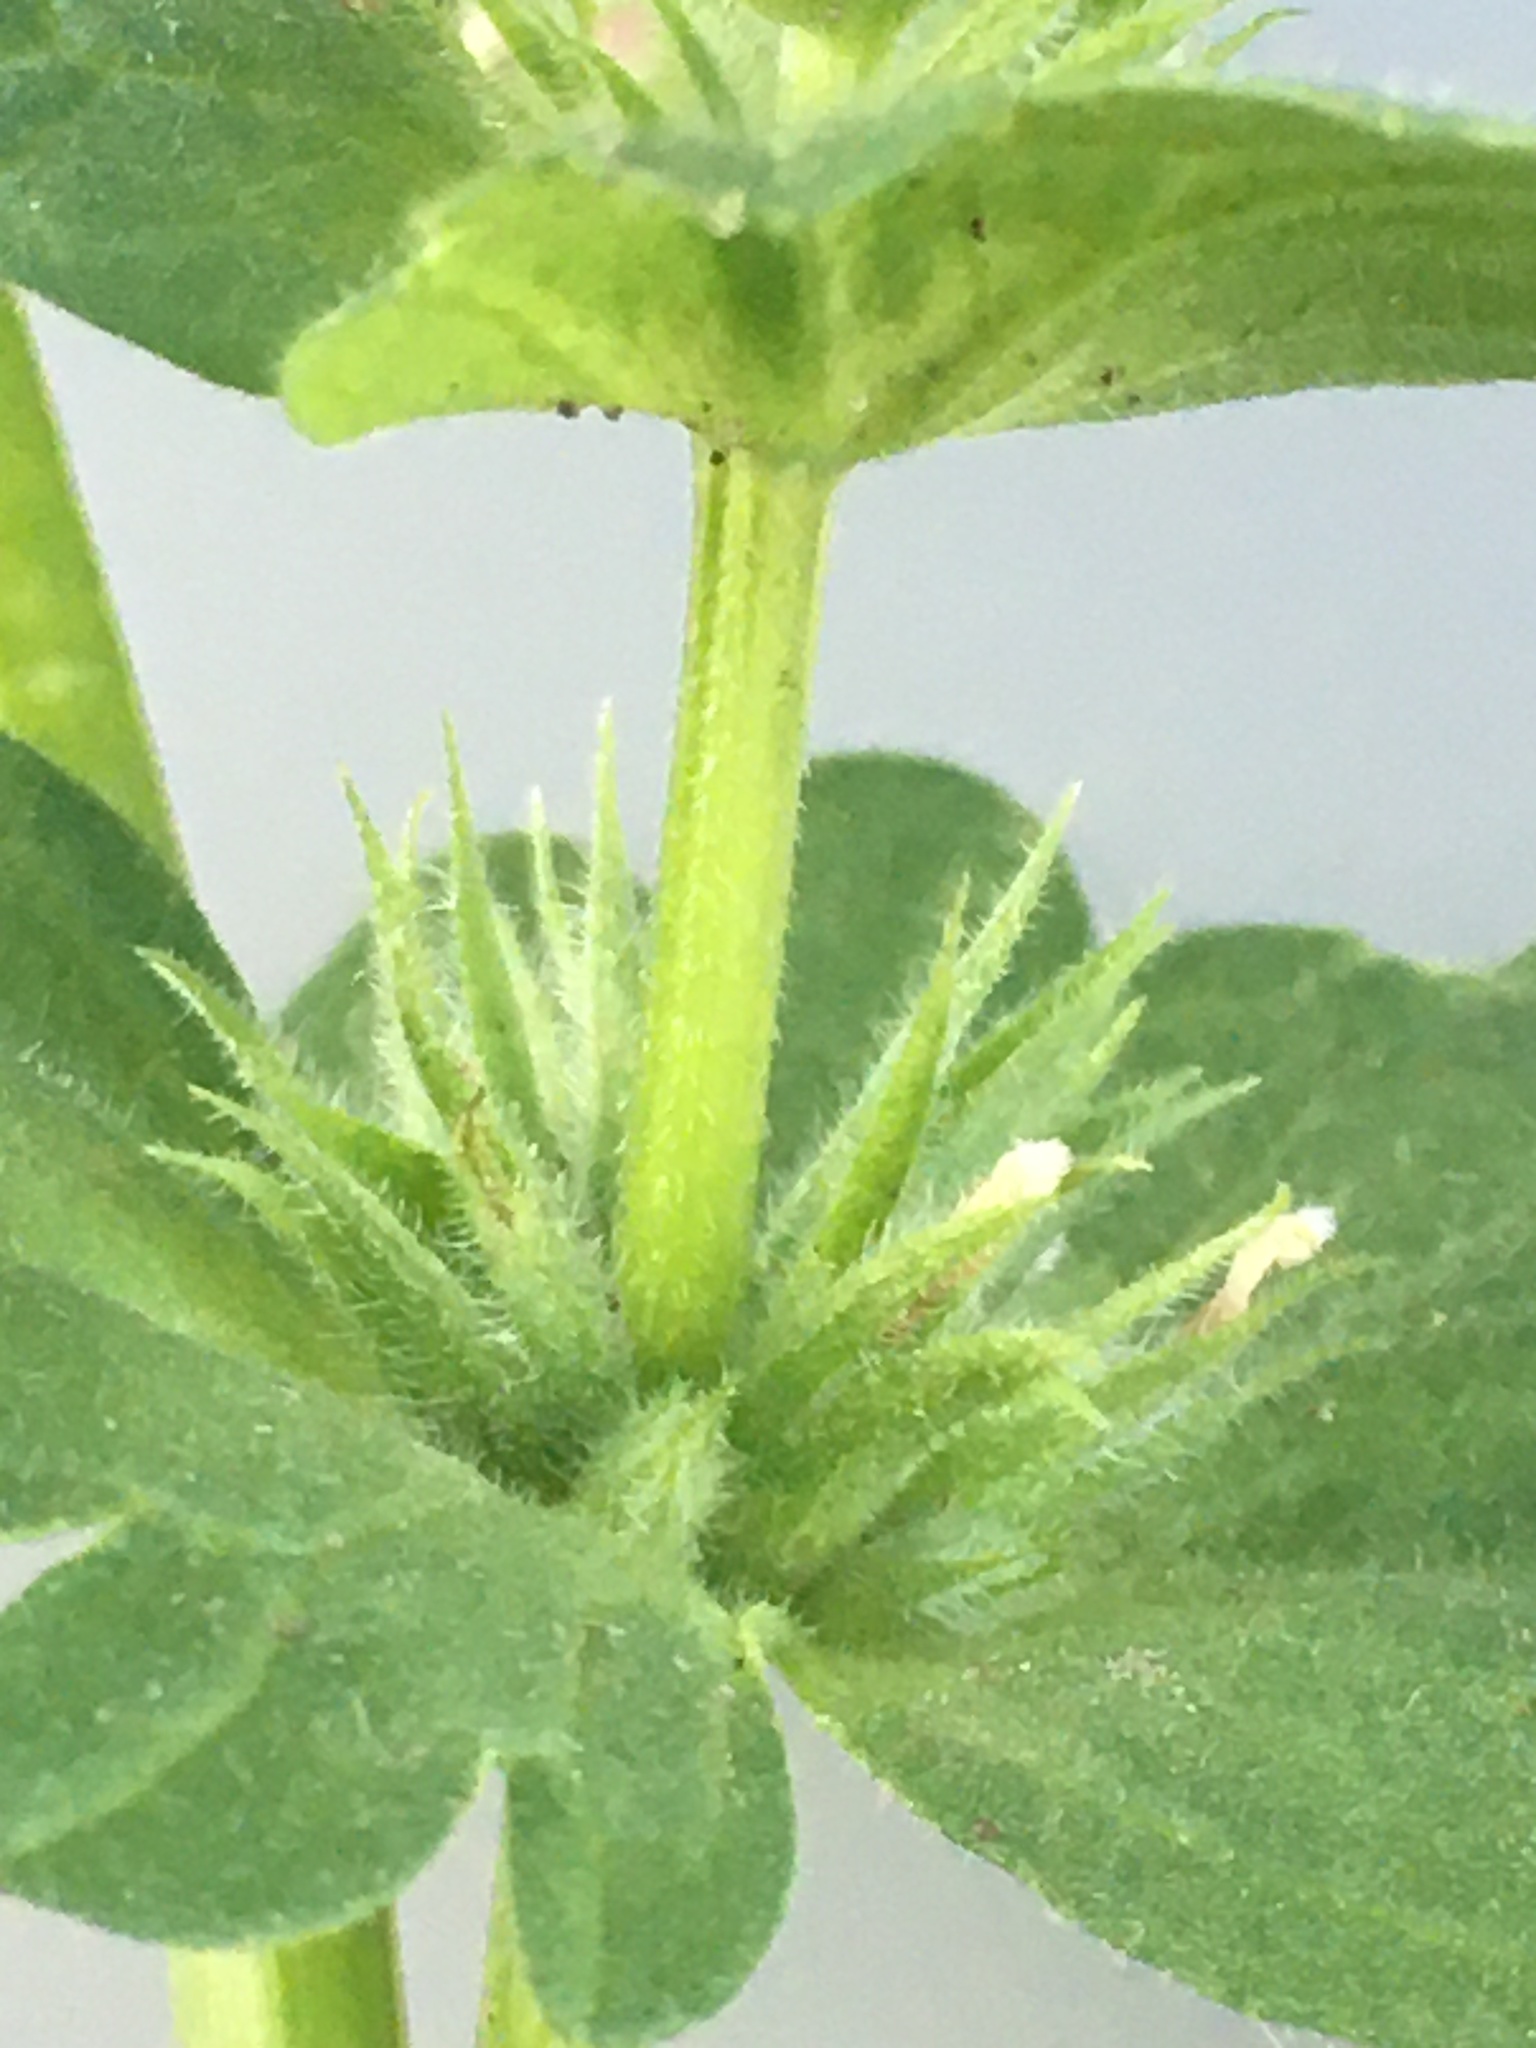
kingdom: Plantae
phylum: Tracheophyta
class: Magnoliopsida
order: Lamiales
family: Lamiaceae
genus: Lamium
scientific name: Lamium amplexicaule
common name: Henbit dead-nettle
